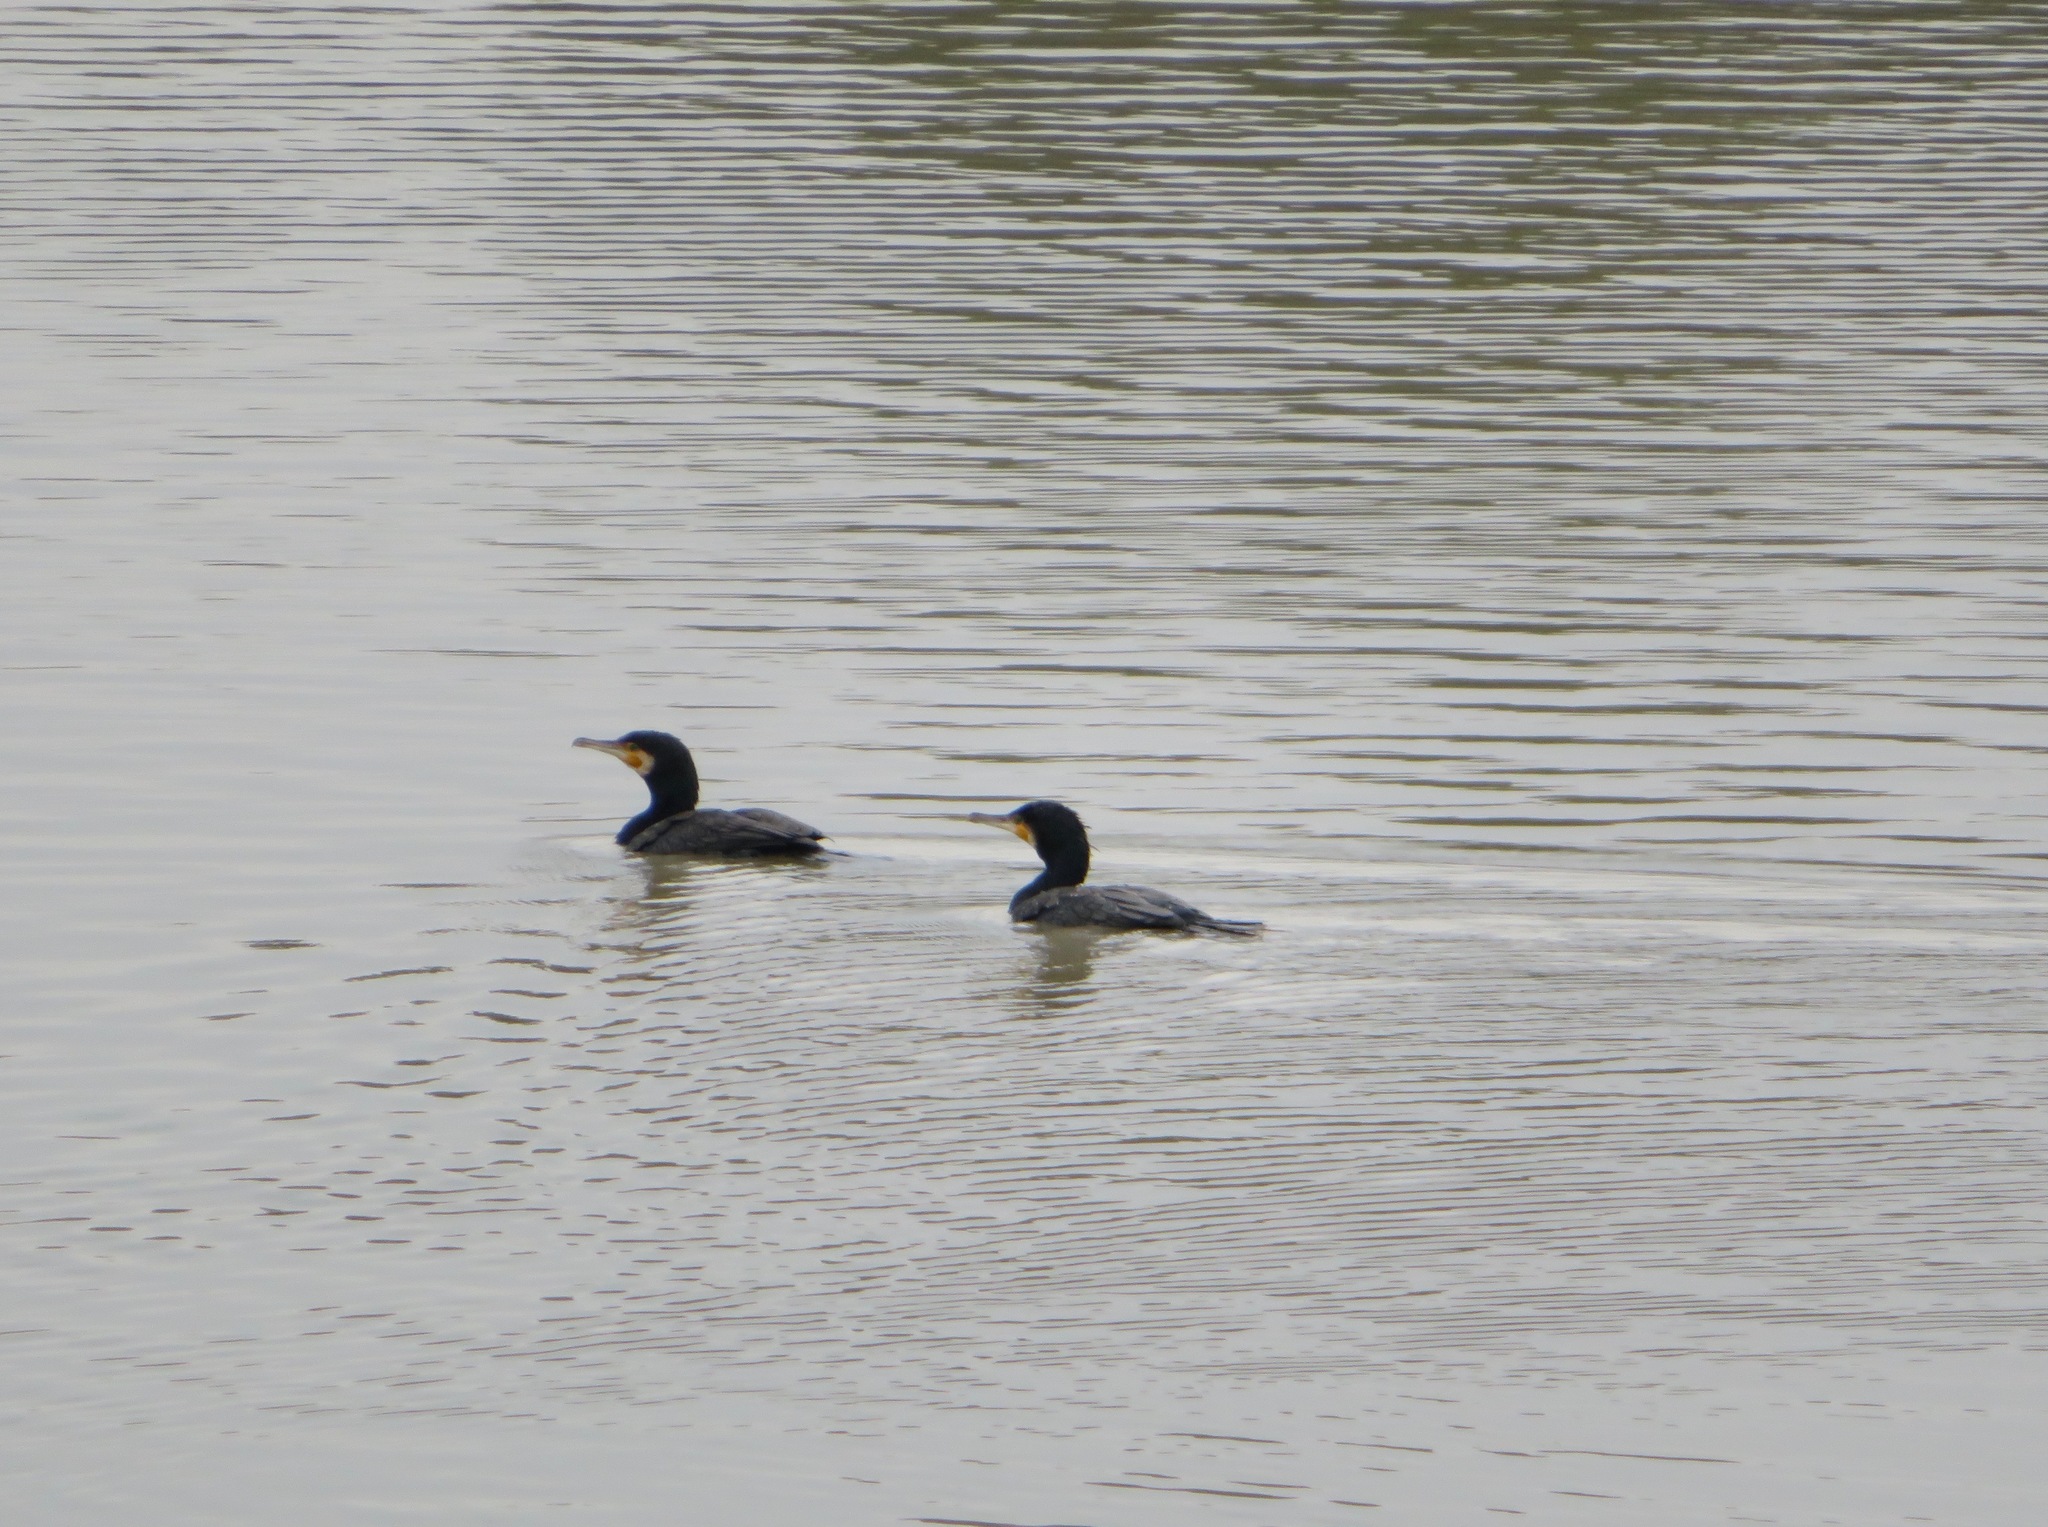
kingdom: Animalia
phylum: Chordata
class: Aves
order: Suliformes
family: Phalacrocoracidae
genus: Phalacrocorax
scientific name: Phalacrocorax carbo
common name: Great cormorant
